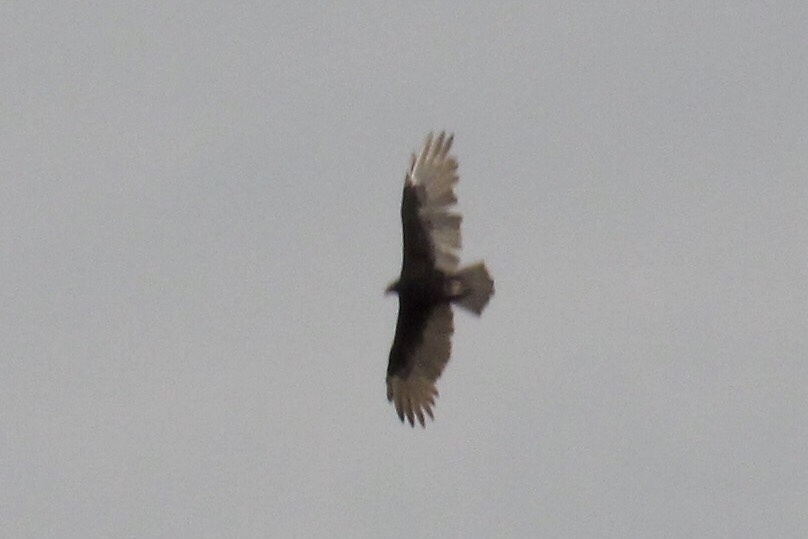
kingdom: Animalia
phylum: Chordata
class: Aves
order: Accipitriformes
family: Cathartidae
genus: Cathartes
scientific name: Cathartes aura
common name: Turkey vulture
